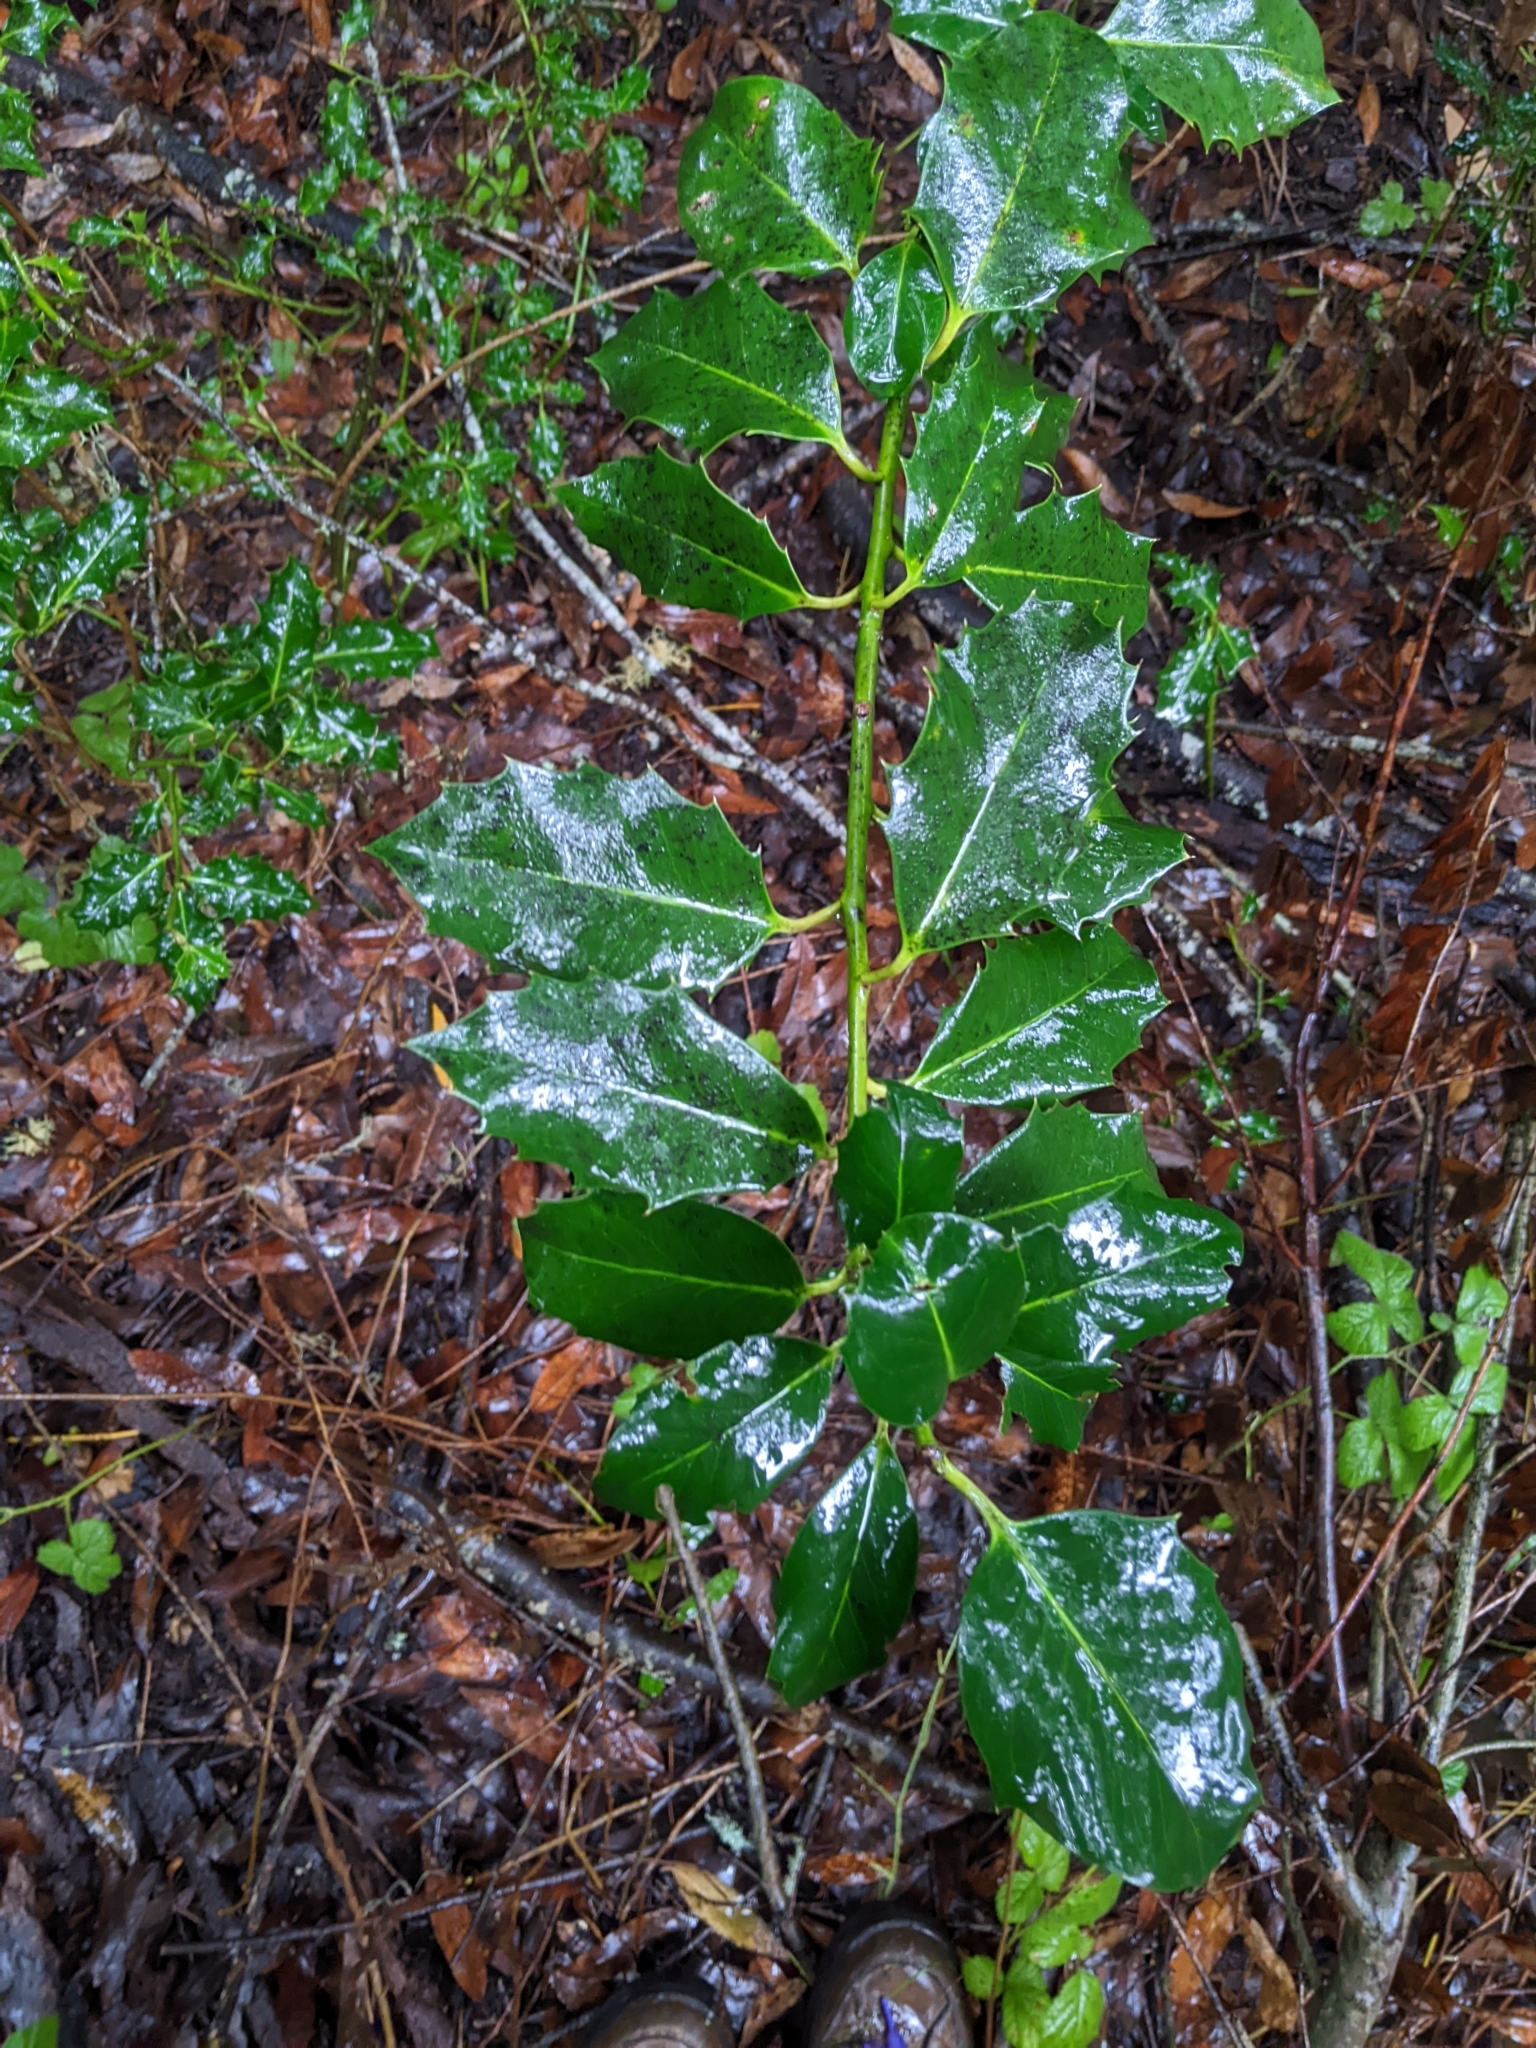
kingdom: Plantae
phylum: Tracheophyta
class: Magnoliopsida
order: Aquifoliales
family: Aquifoliaceae
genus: Ilex
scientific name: Ilex aquifolium
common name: English holly
